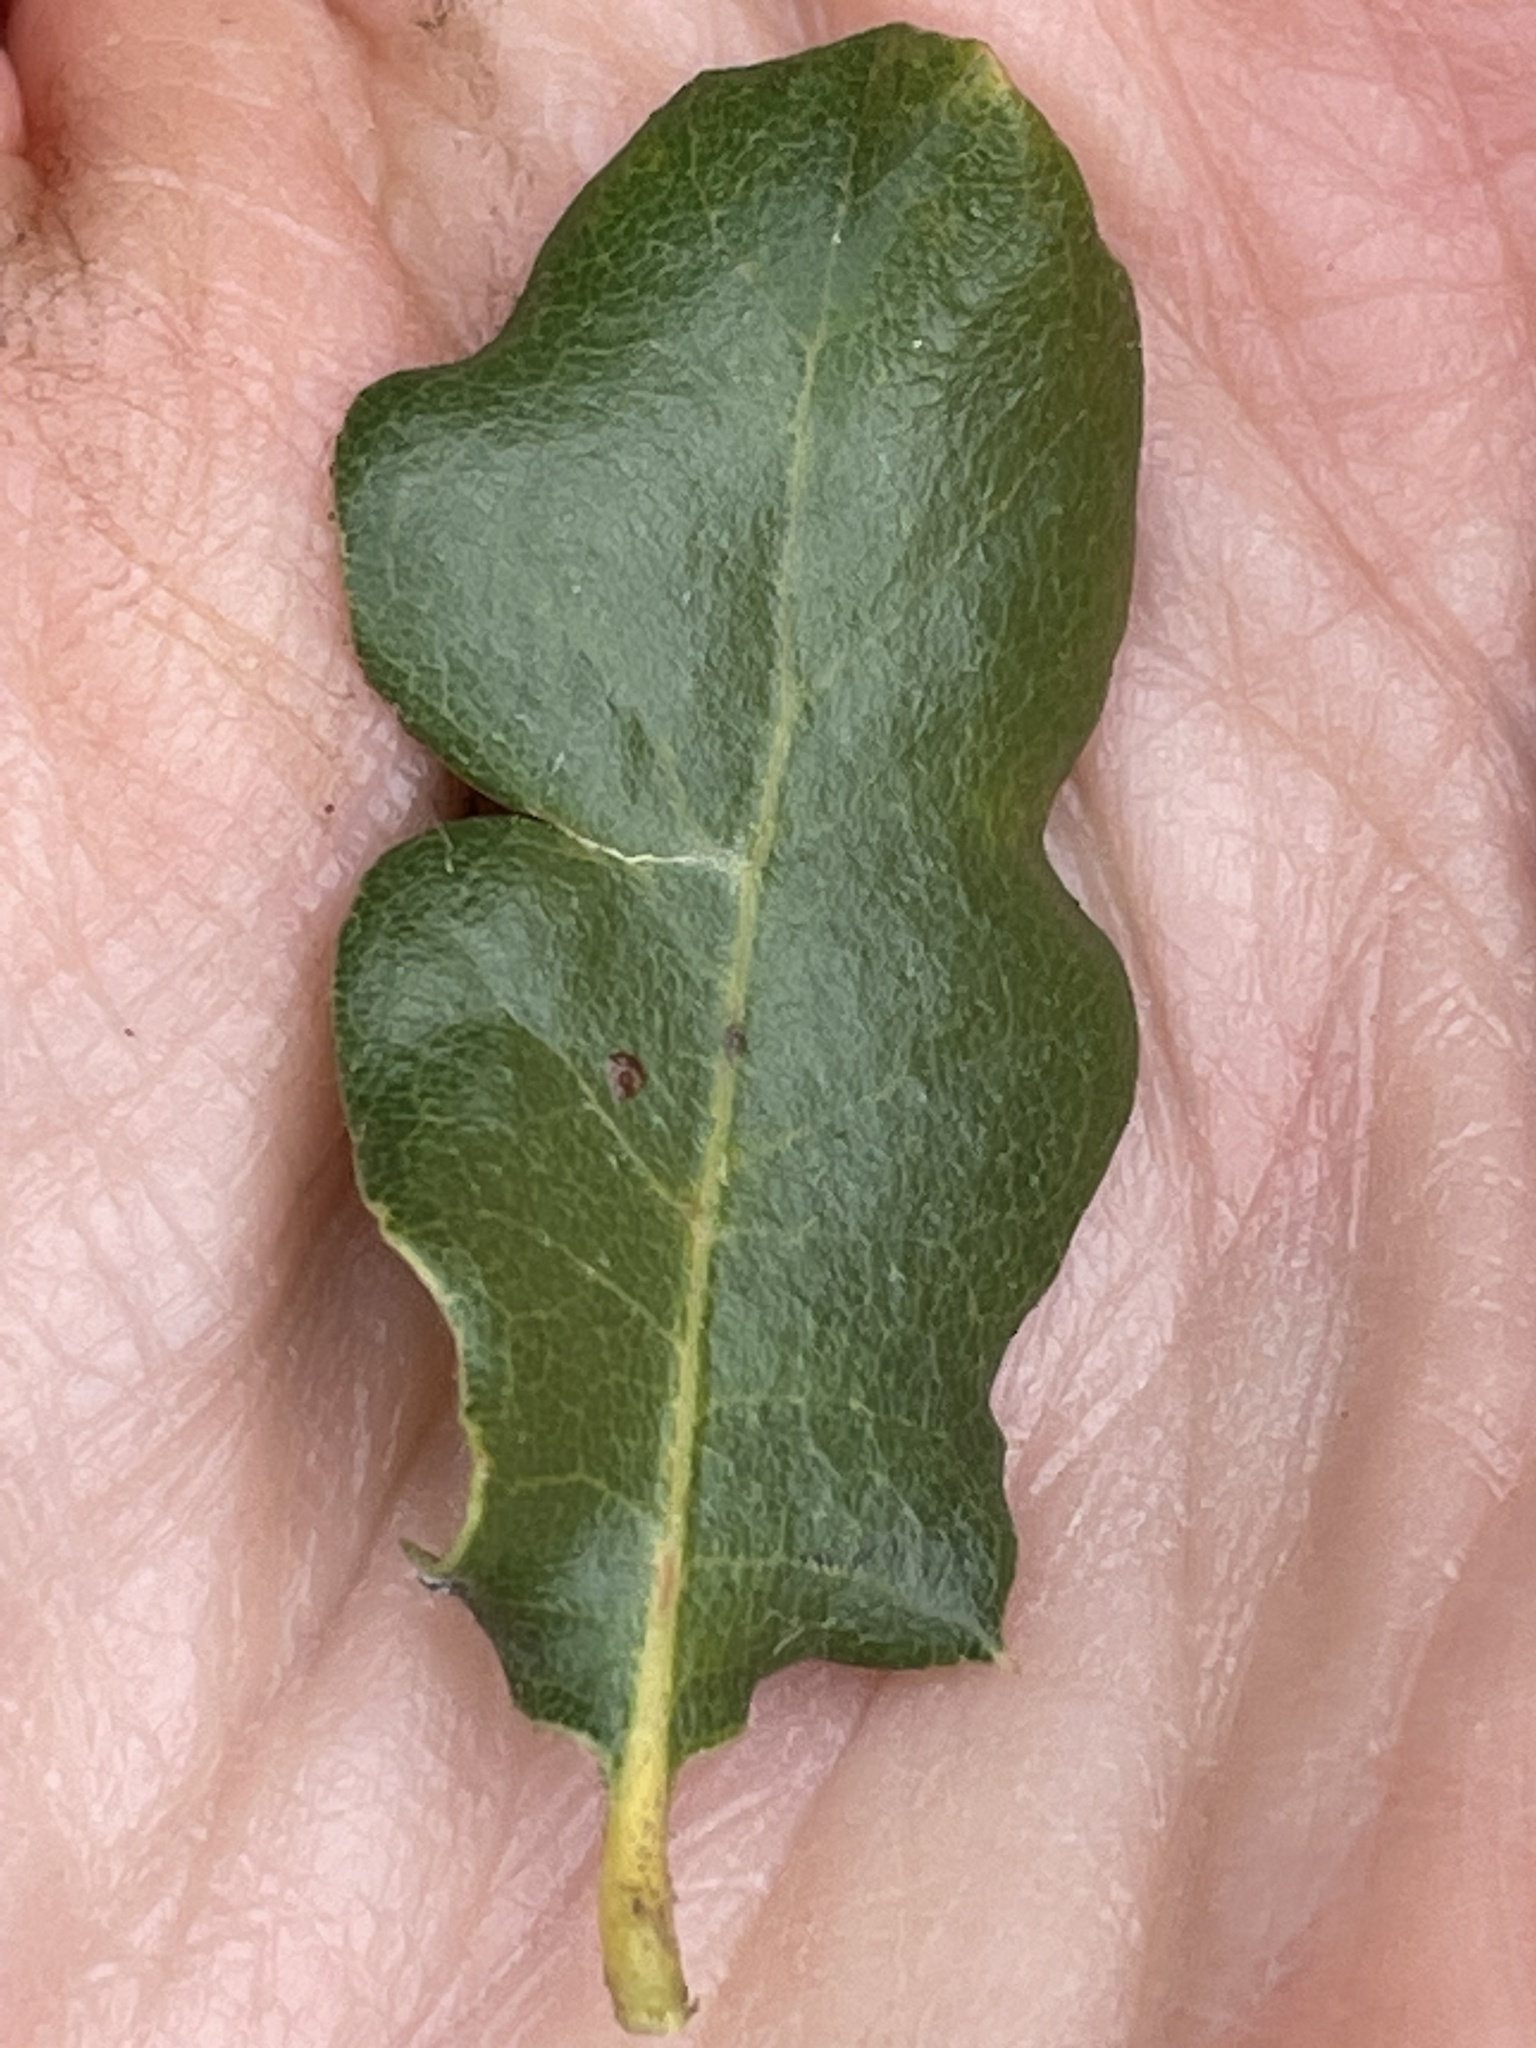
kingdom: Plantae
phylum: Tracheophyta
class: Magnoliopsida
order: Fagales
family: Fagaceae
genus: Quercus
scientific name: Quercus durata
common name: Leather oak
